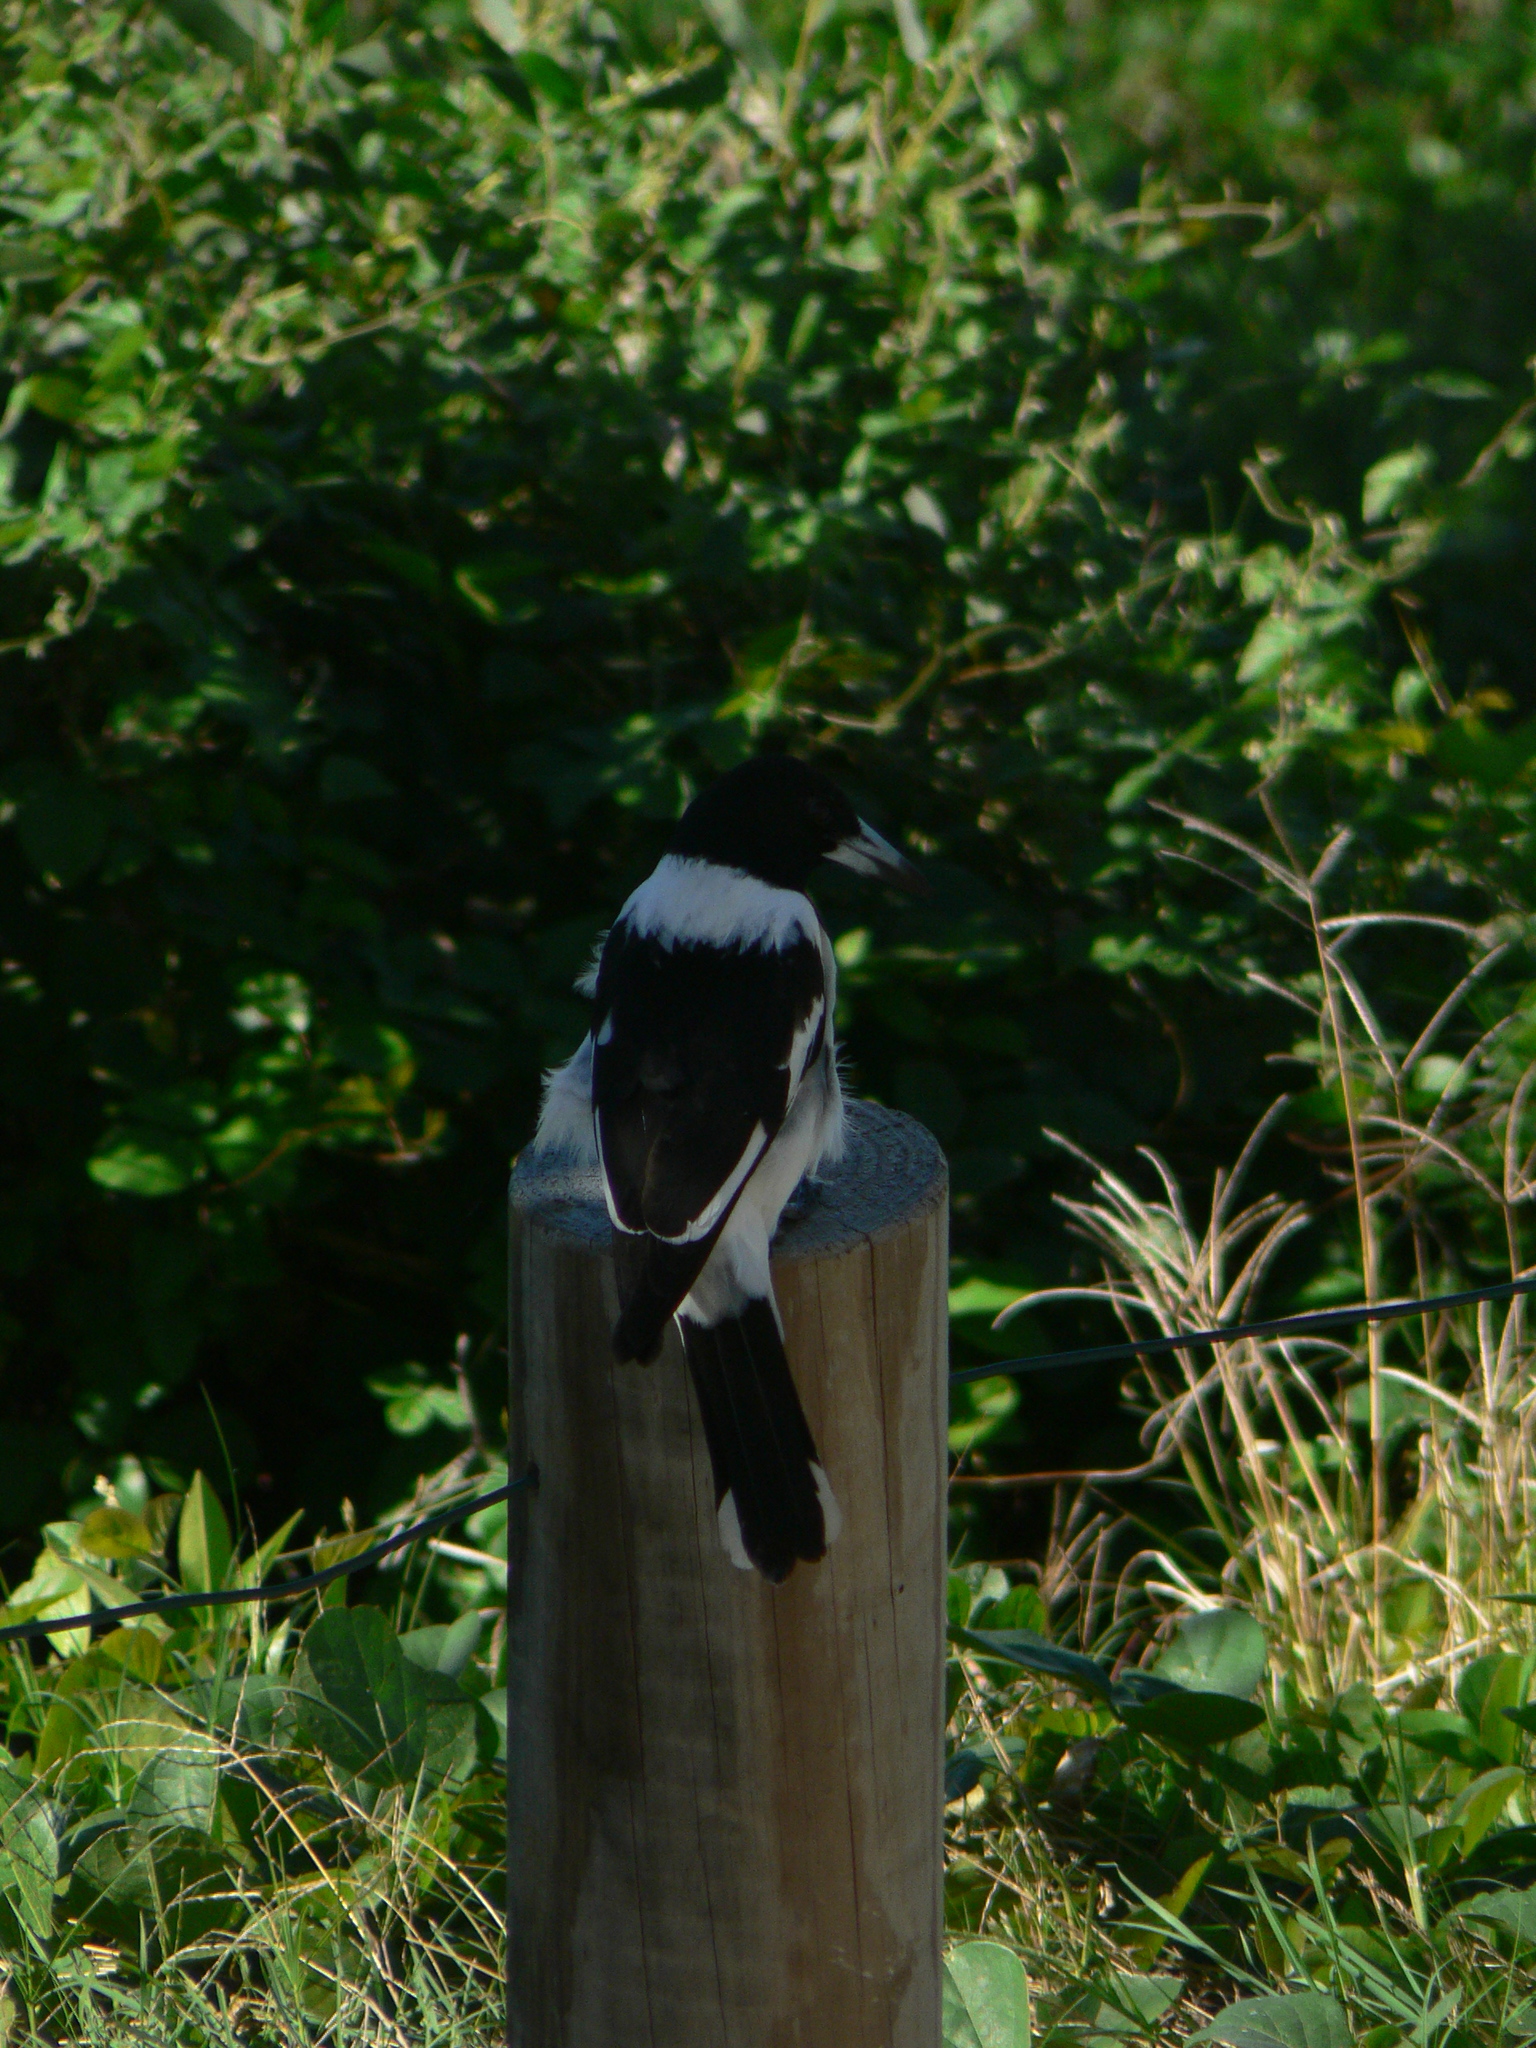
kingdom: Animalia
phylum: Chordata
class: Aves
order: Passeriformes
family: Cracticidae
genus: Cracticus
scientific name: Cracticus nigrogularis
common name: Pied butcherbird
